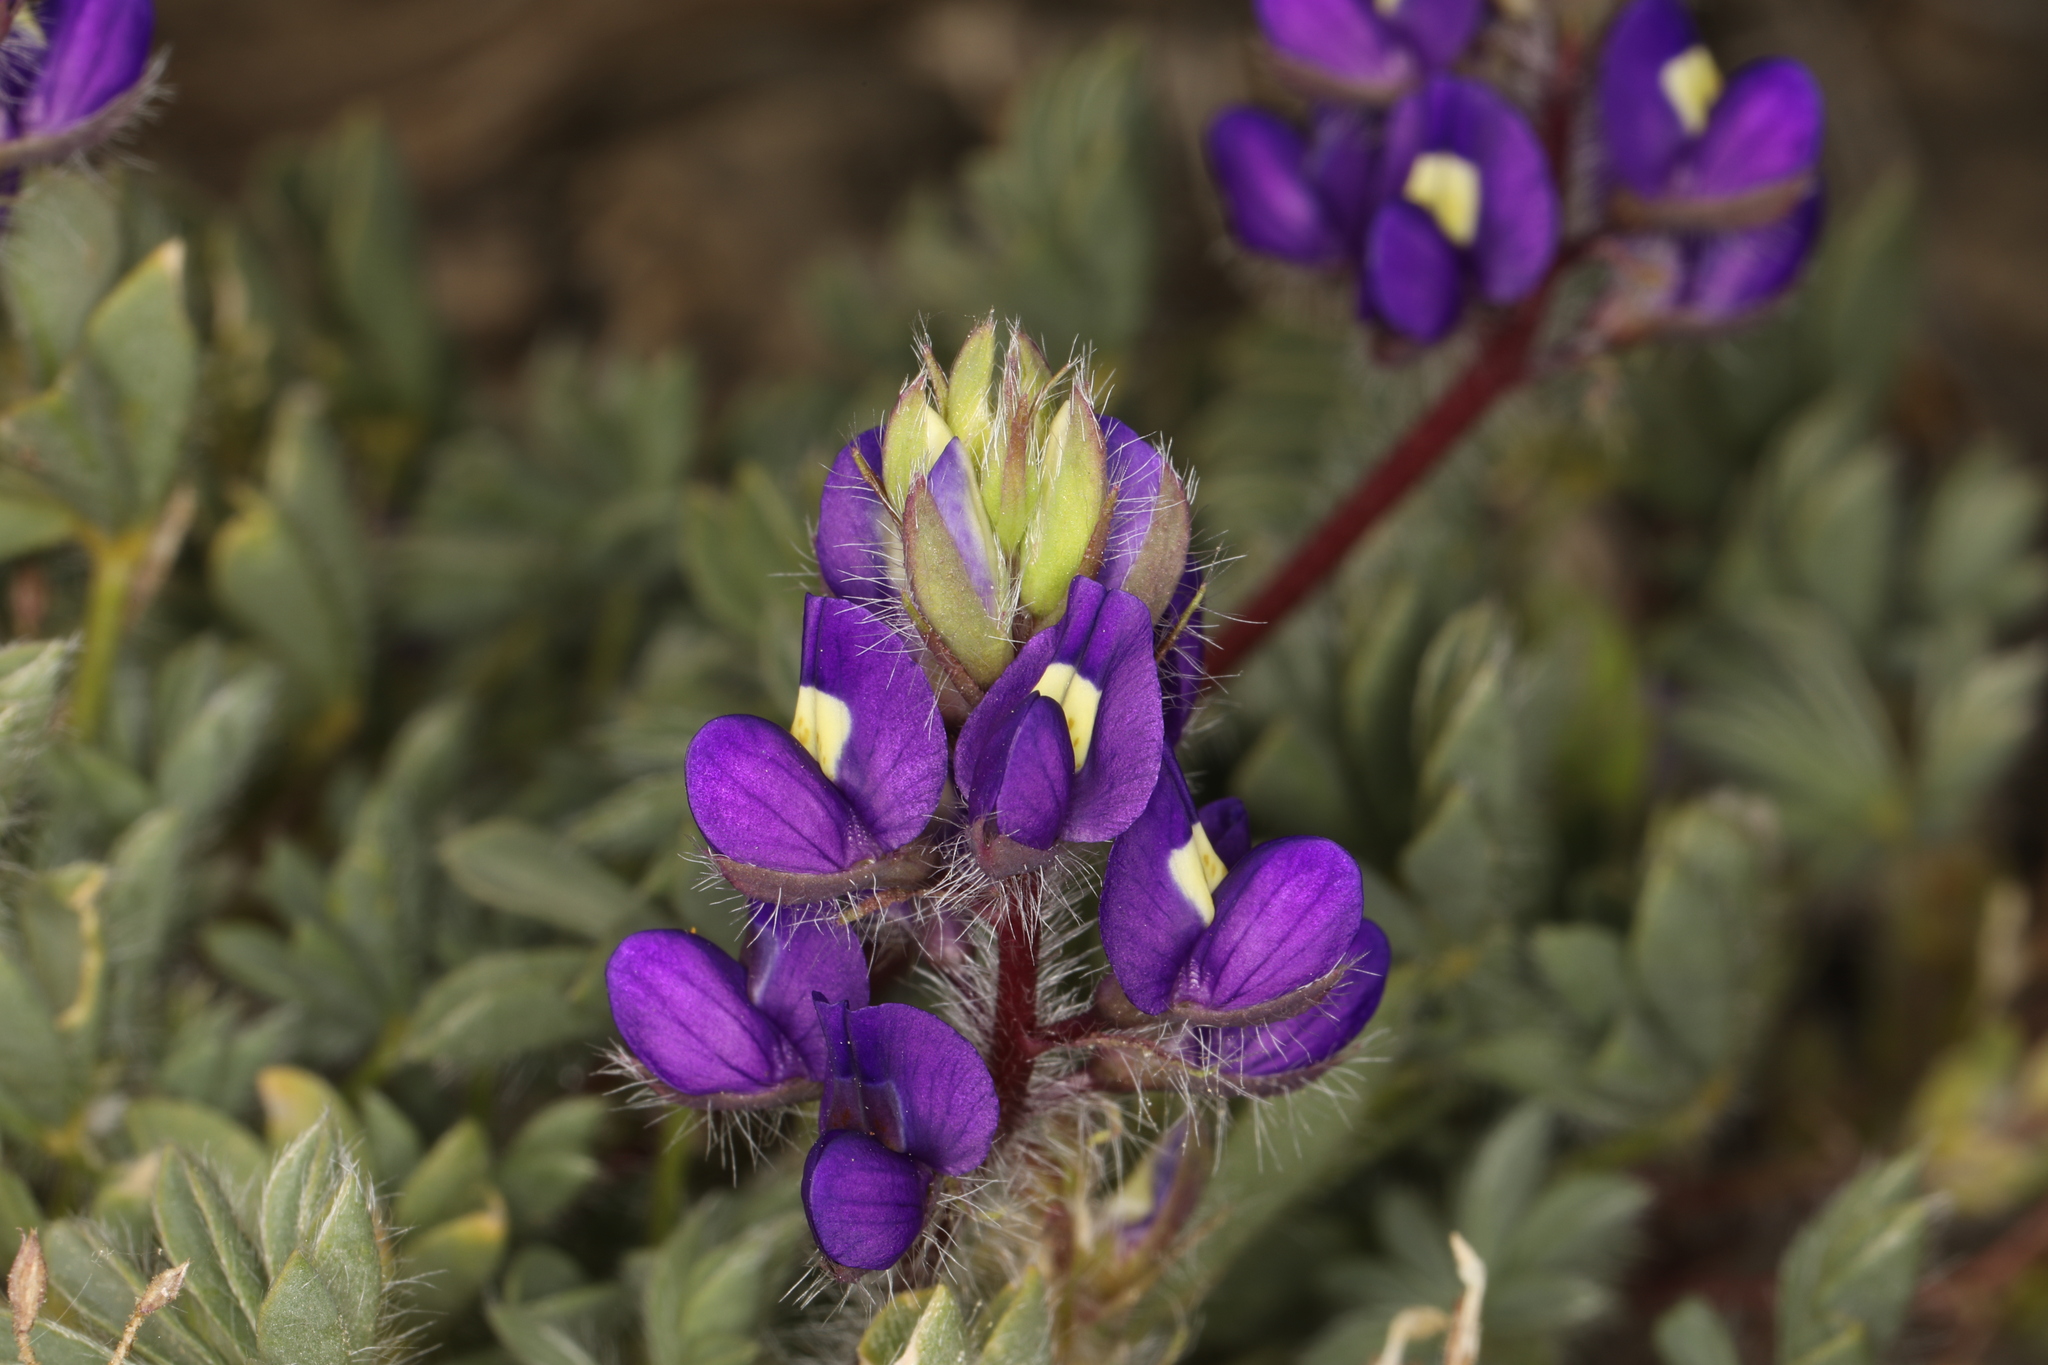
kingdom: Plantae
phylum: Tracheophyta
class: Magnoliopsida
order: Fabales
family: Fabaceae
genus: Lupinus
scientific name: Lupinus flavoculatus
